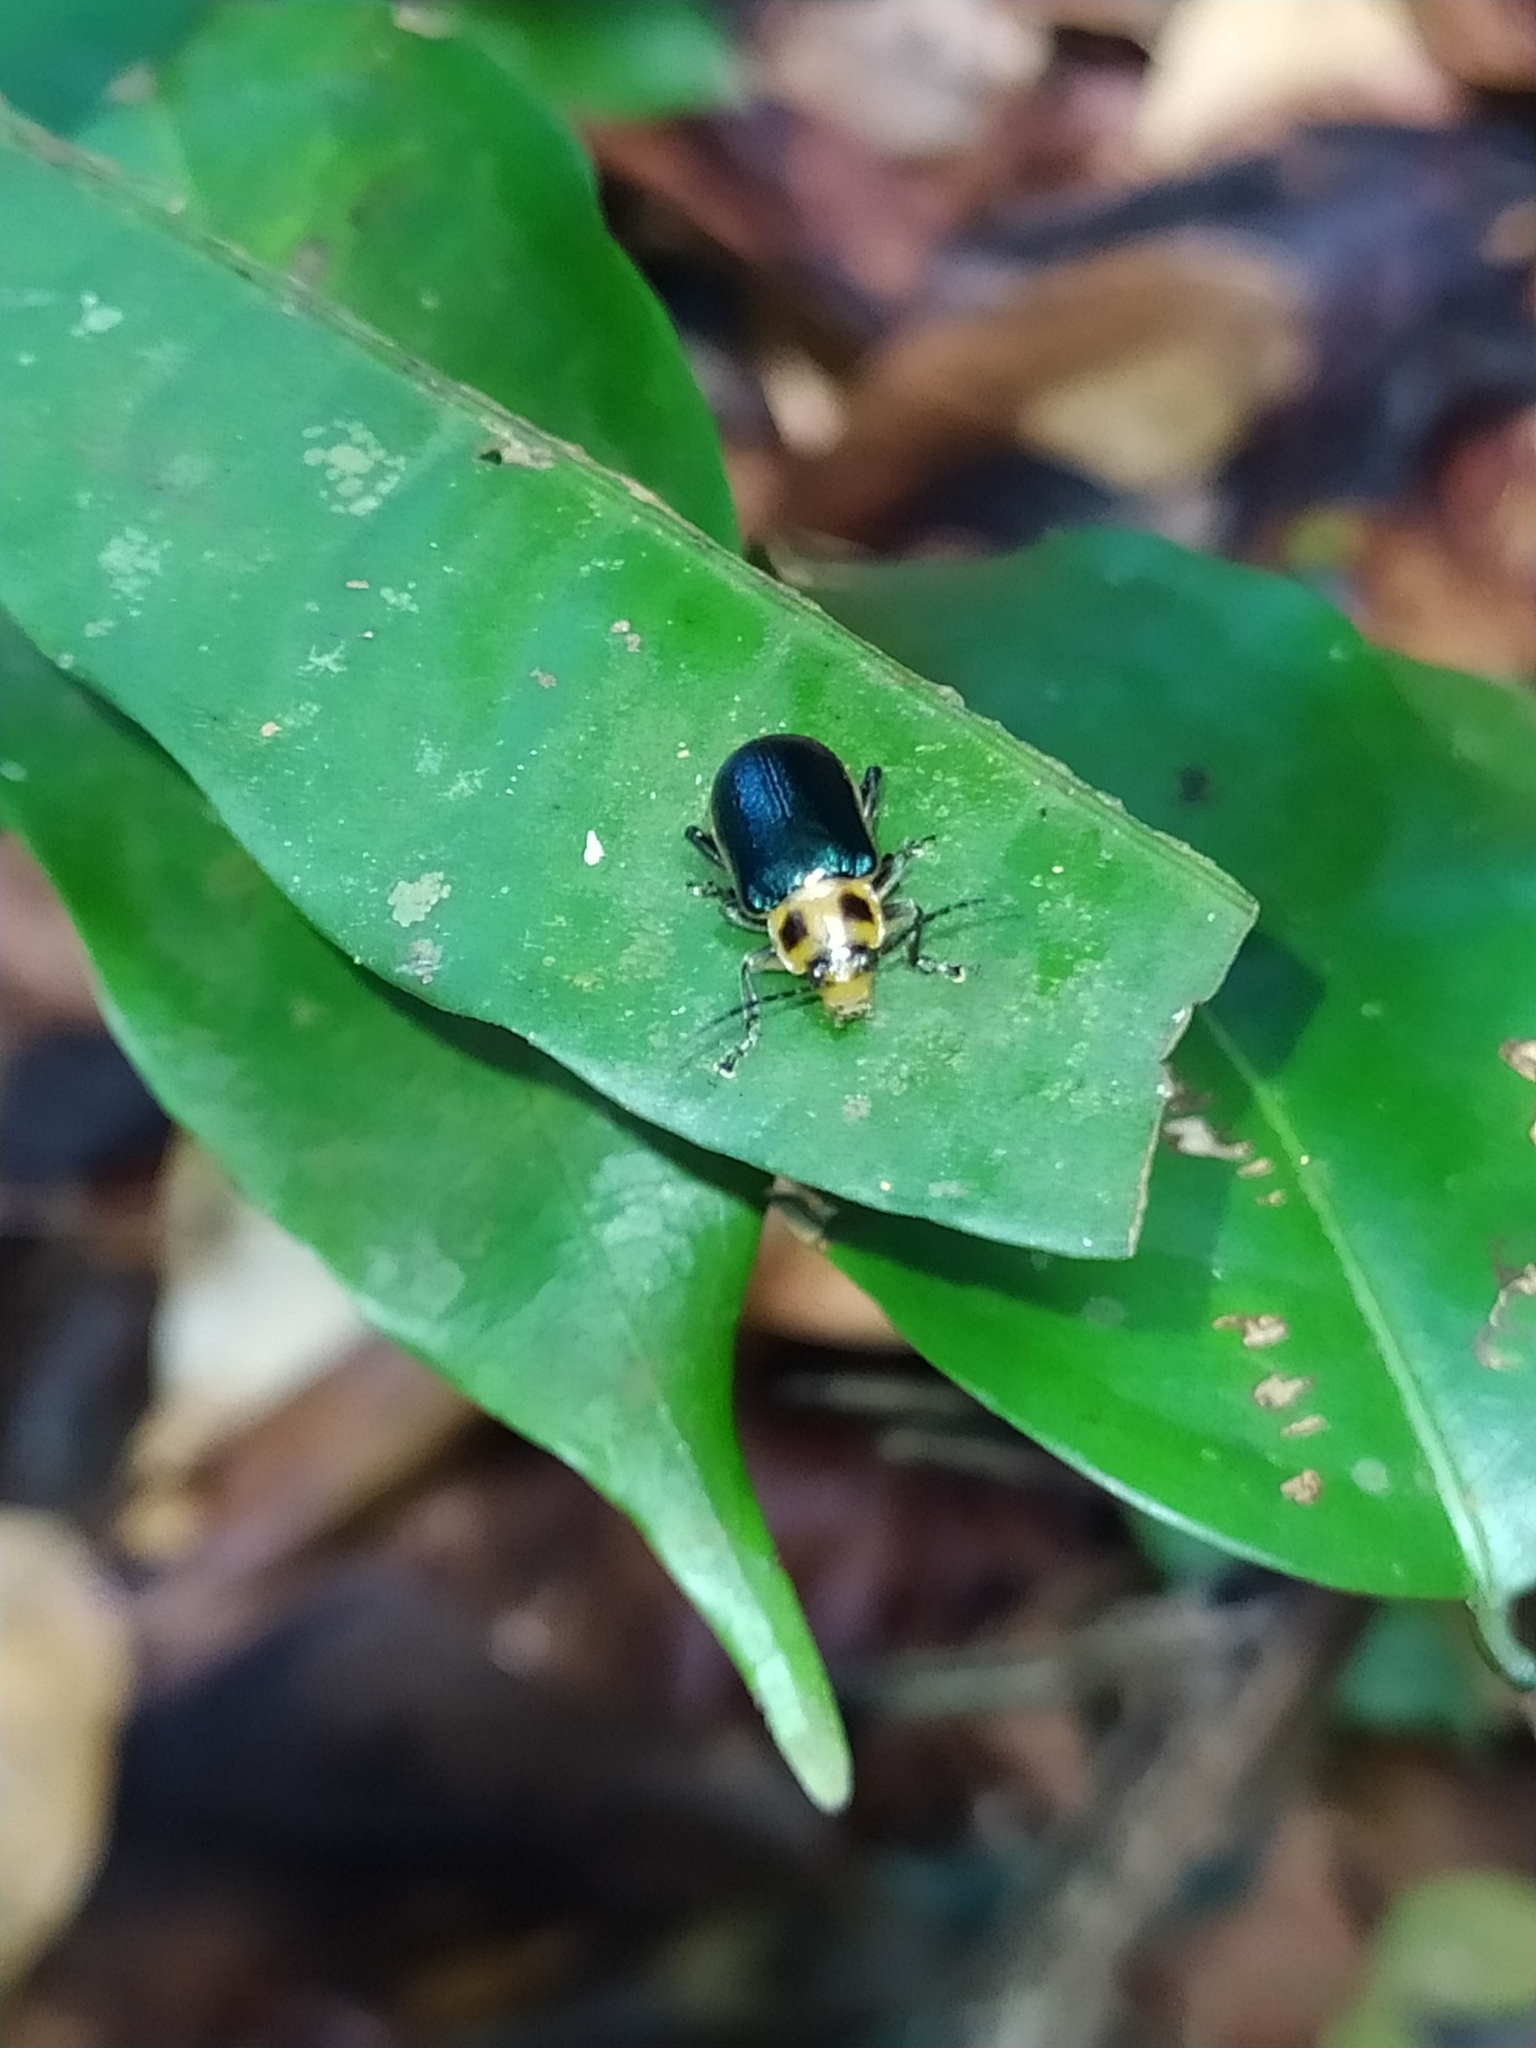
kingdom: Animalia
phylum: Arthropoda
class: Insecta
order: Coleoptera
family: Chrysomelidae
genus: Cacoscelis
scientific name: Cacoscelis marginata
